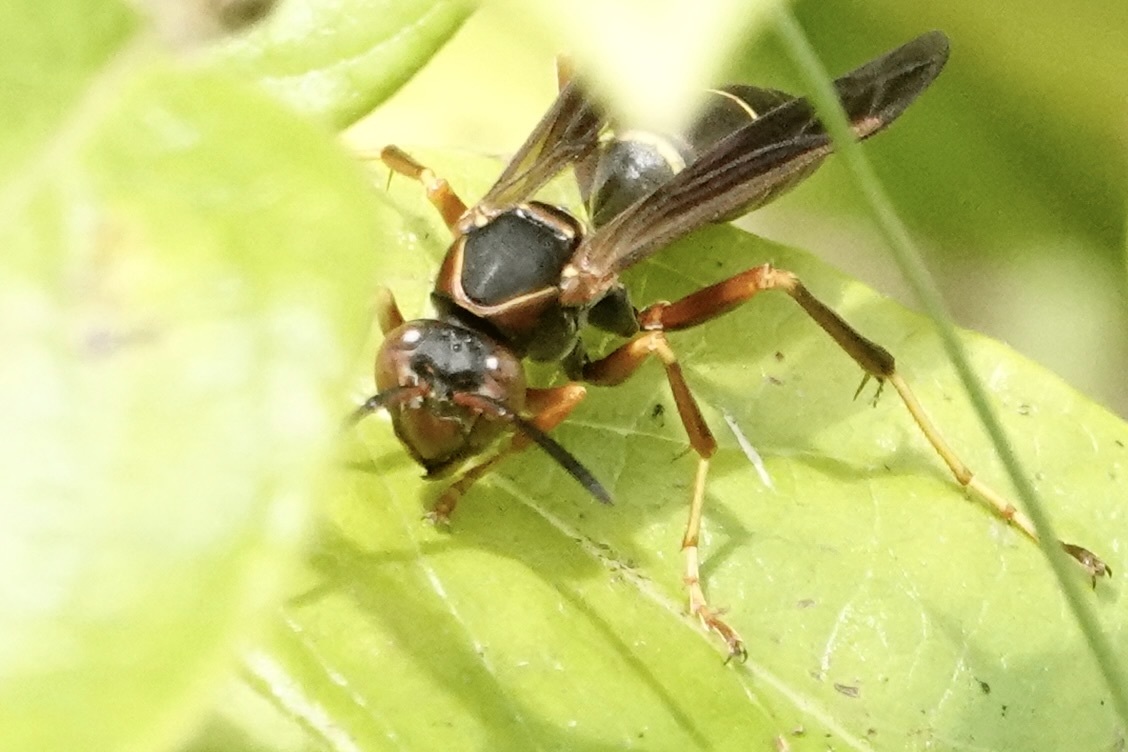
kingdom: Animalia
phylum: Arthropoda
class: Insecta
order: Hymenoptera
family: Eumenidae
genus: Polistes
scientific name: Polistes fuscatus
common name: Dark paper wasp
